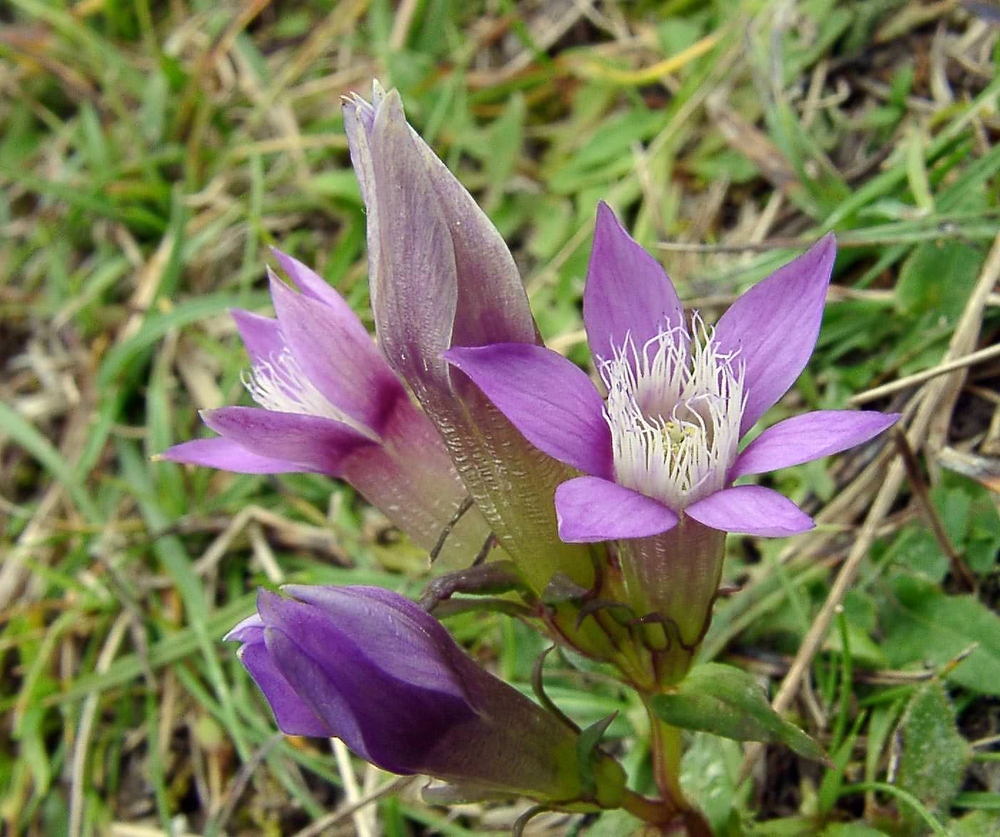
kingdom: Plantae
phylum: Tracheophyta
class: Magnoliopsida
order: Gentianales
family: Gentianaceae
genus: Gentianella
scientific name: Gentianella germanica
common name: Chiltern-gentian
